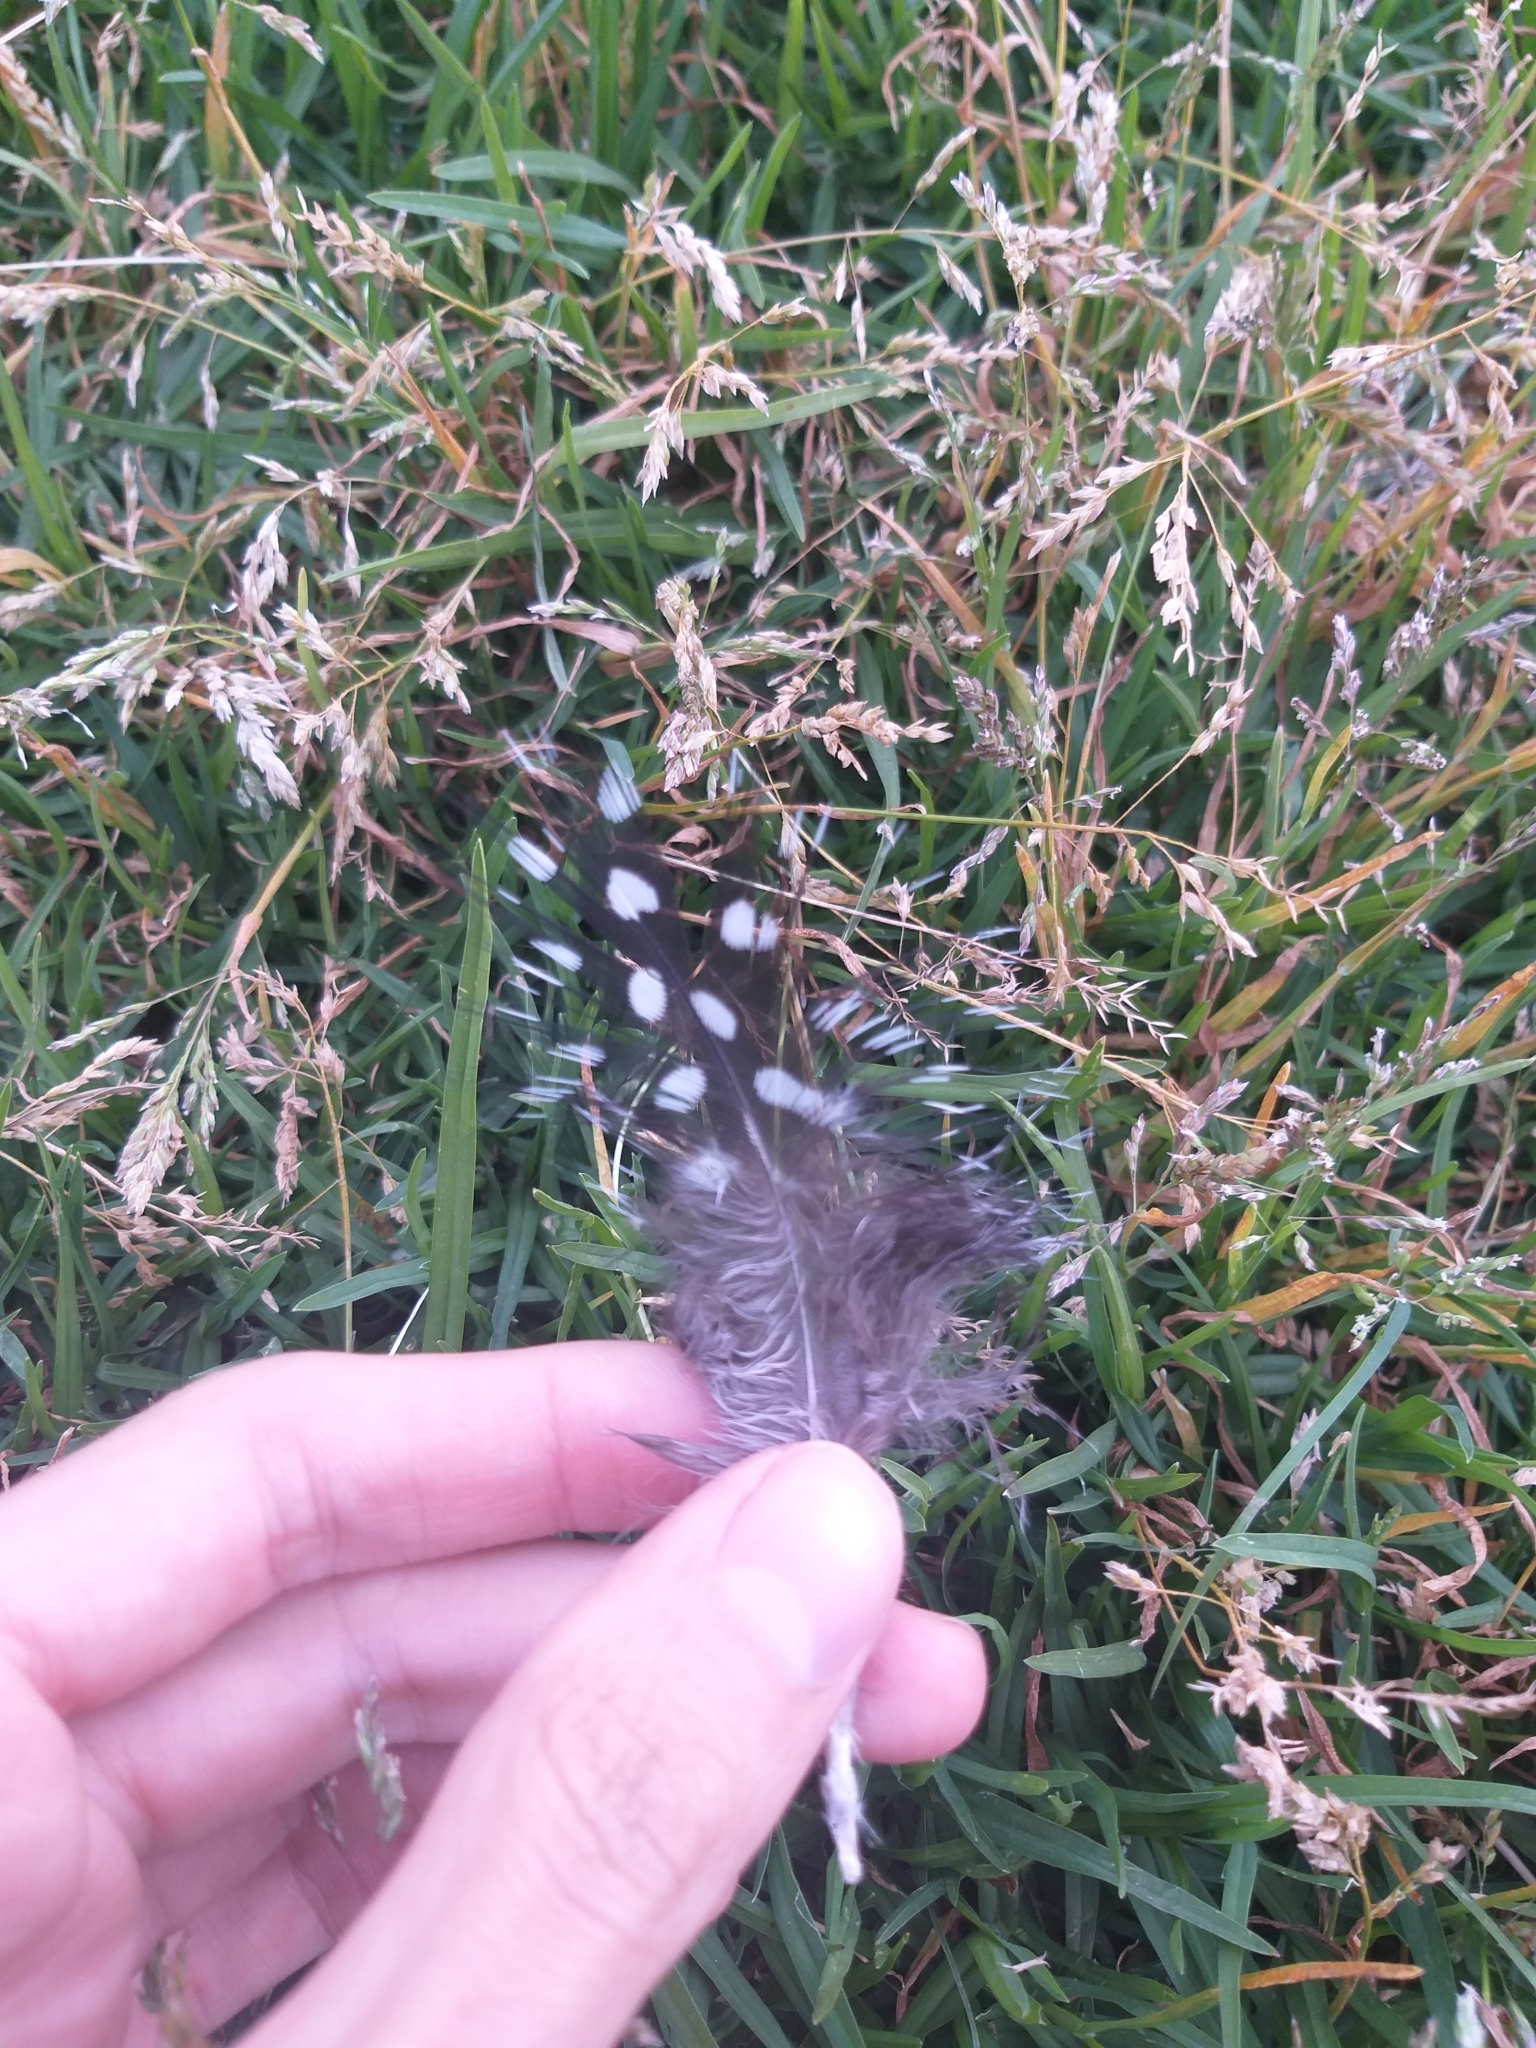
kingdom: Animalia
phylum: Chordata
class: Aves
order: Galliformes
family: Numididae
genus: Numida
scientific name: Numida meleagris
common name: Helmeted guineafowl
